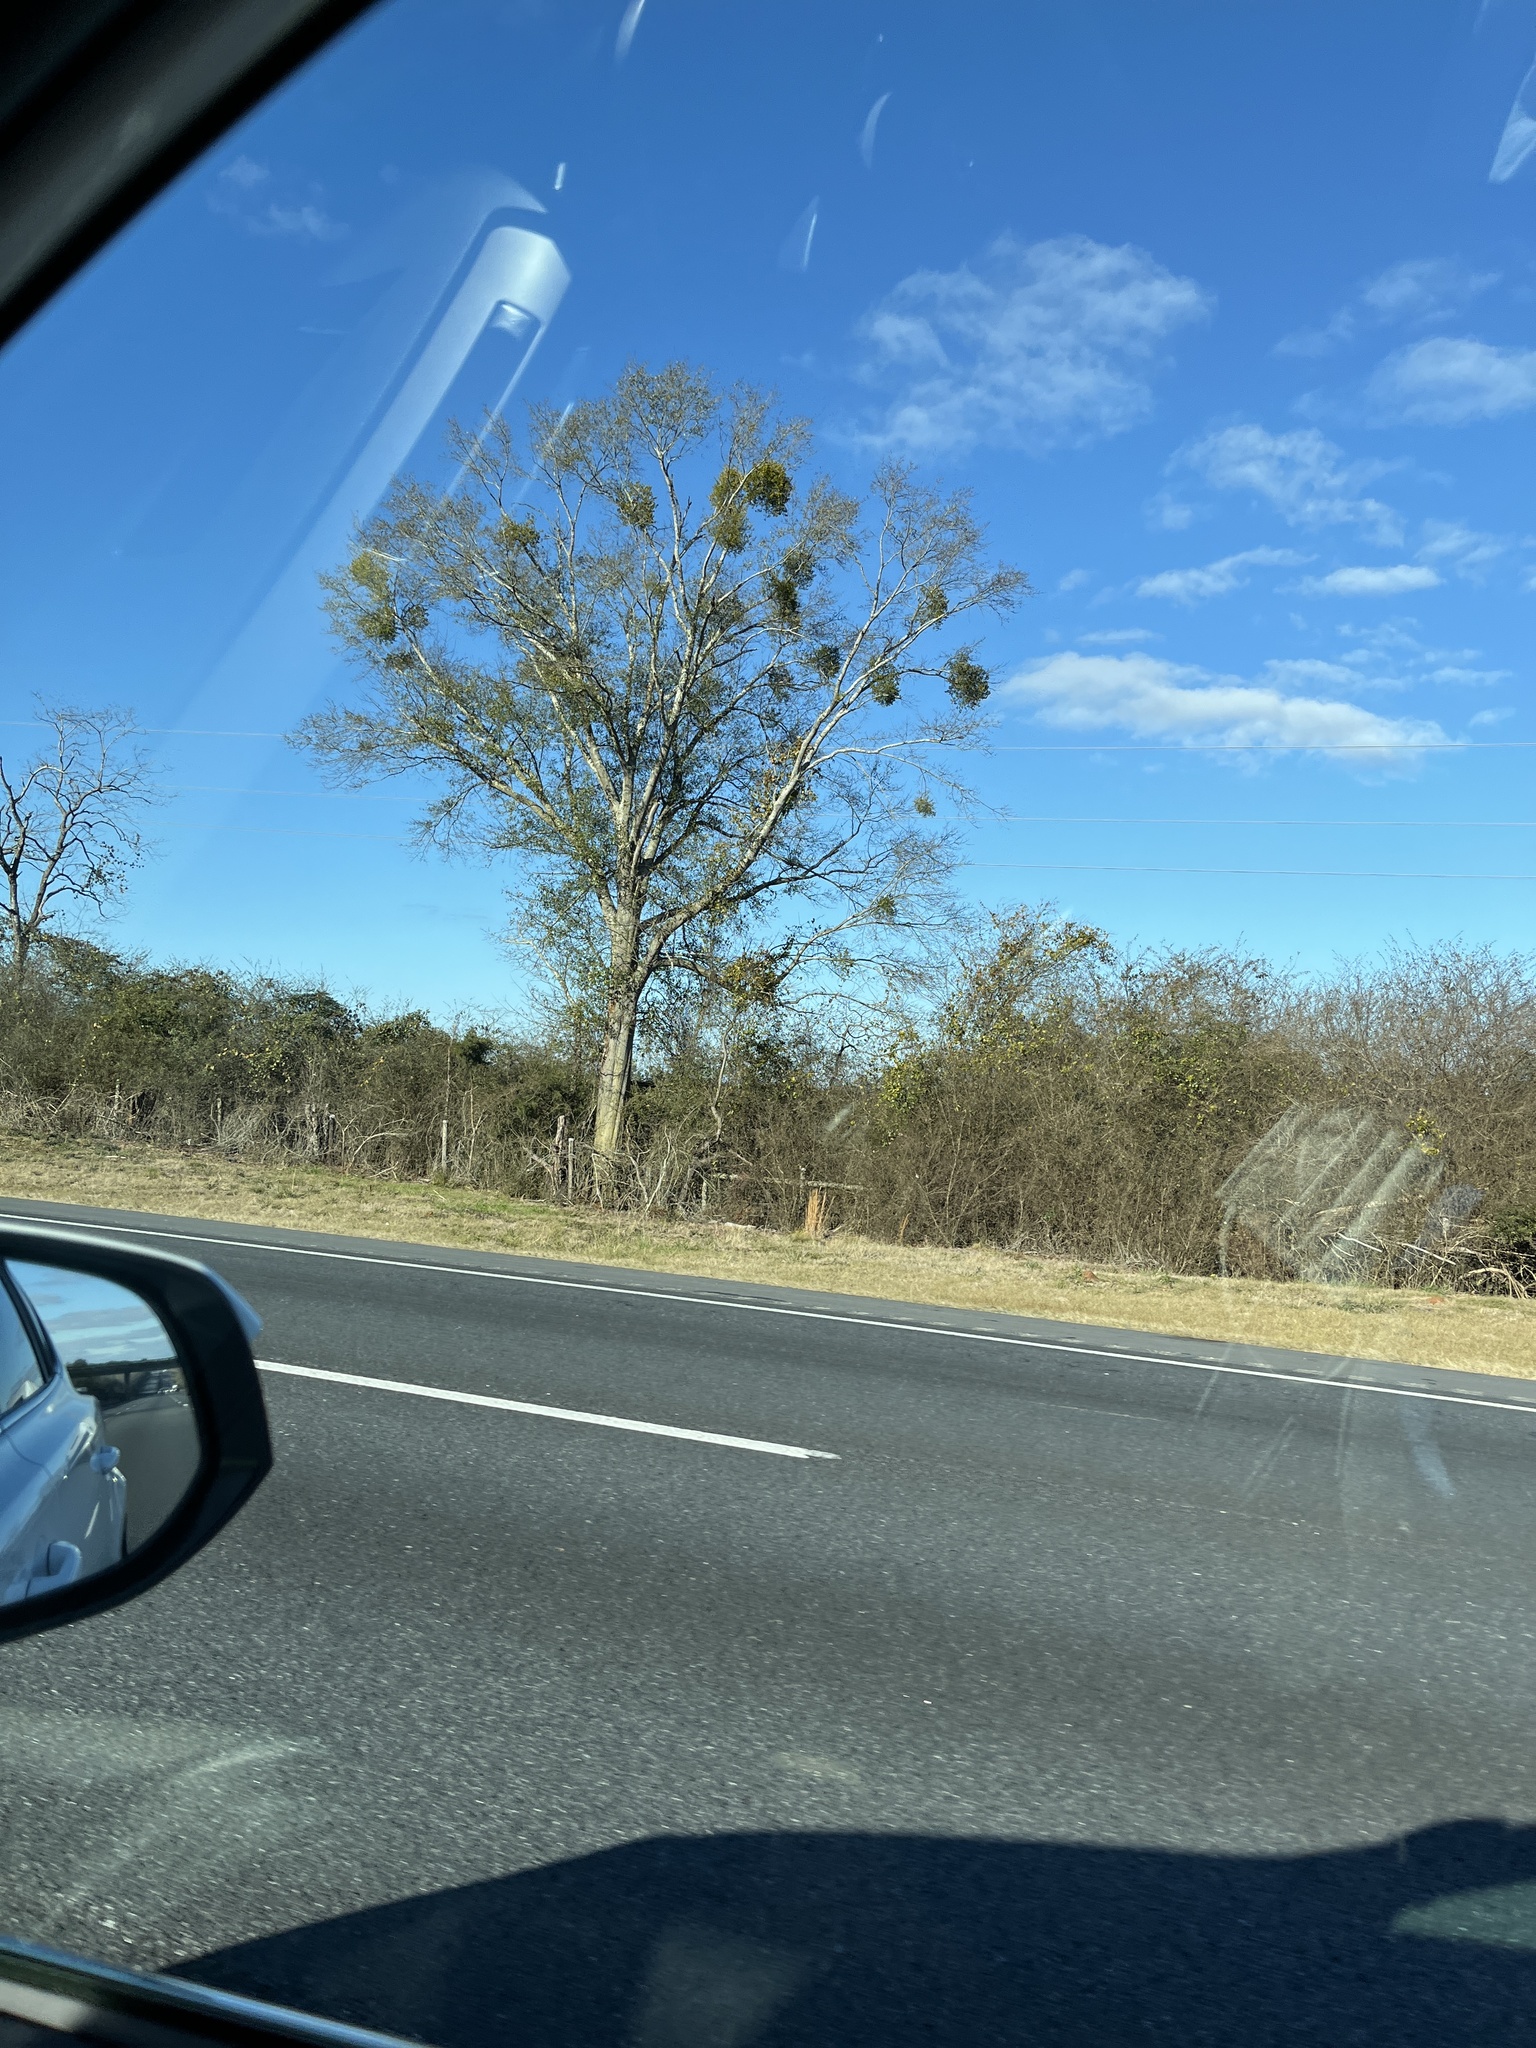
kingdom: Plantae
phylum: Tracheophyta
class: Magnoliopsida
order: Santalales
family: Viscaceae
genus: Phoradendron
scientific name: Phoradendron leucarpum
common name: Pacific mistletoe
